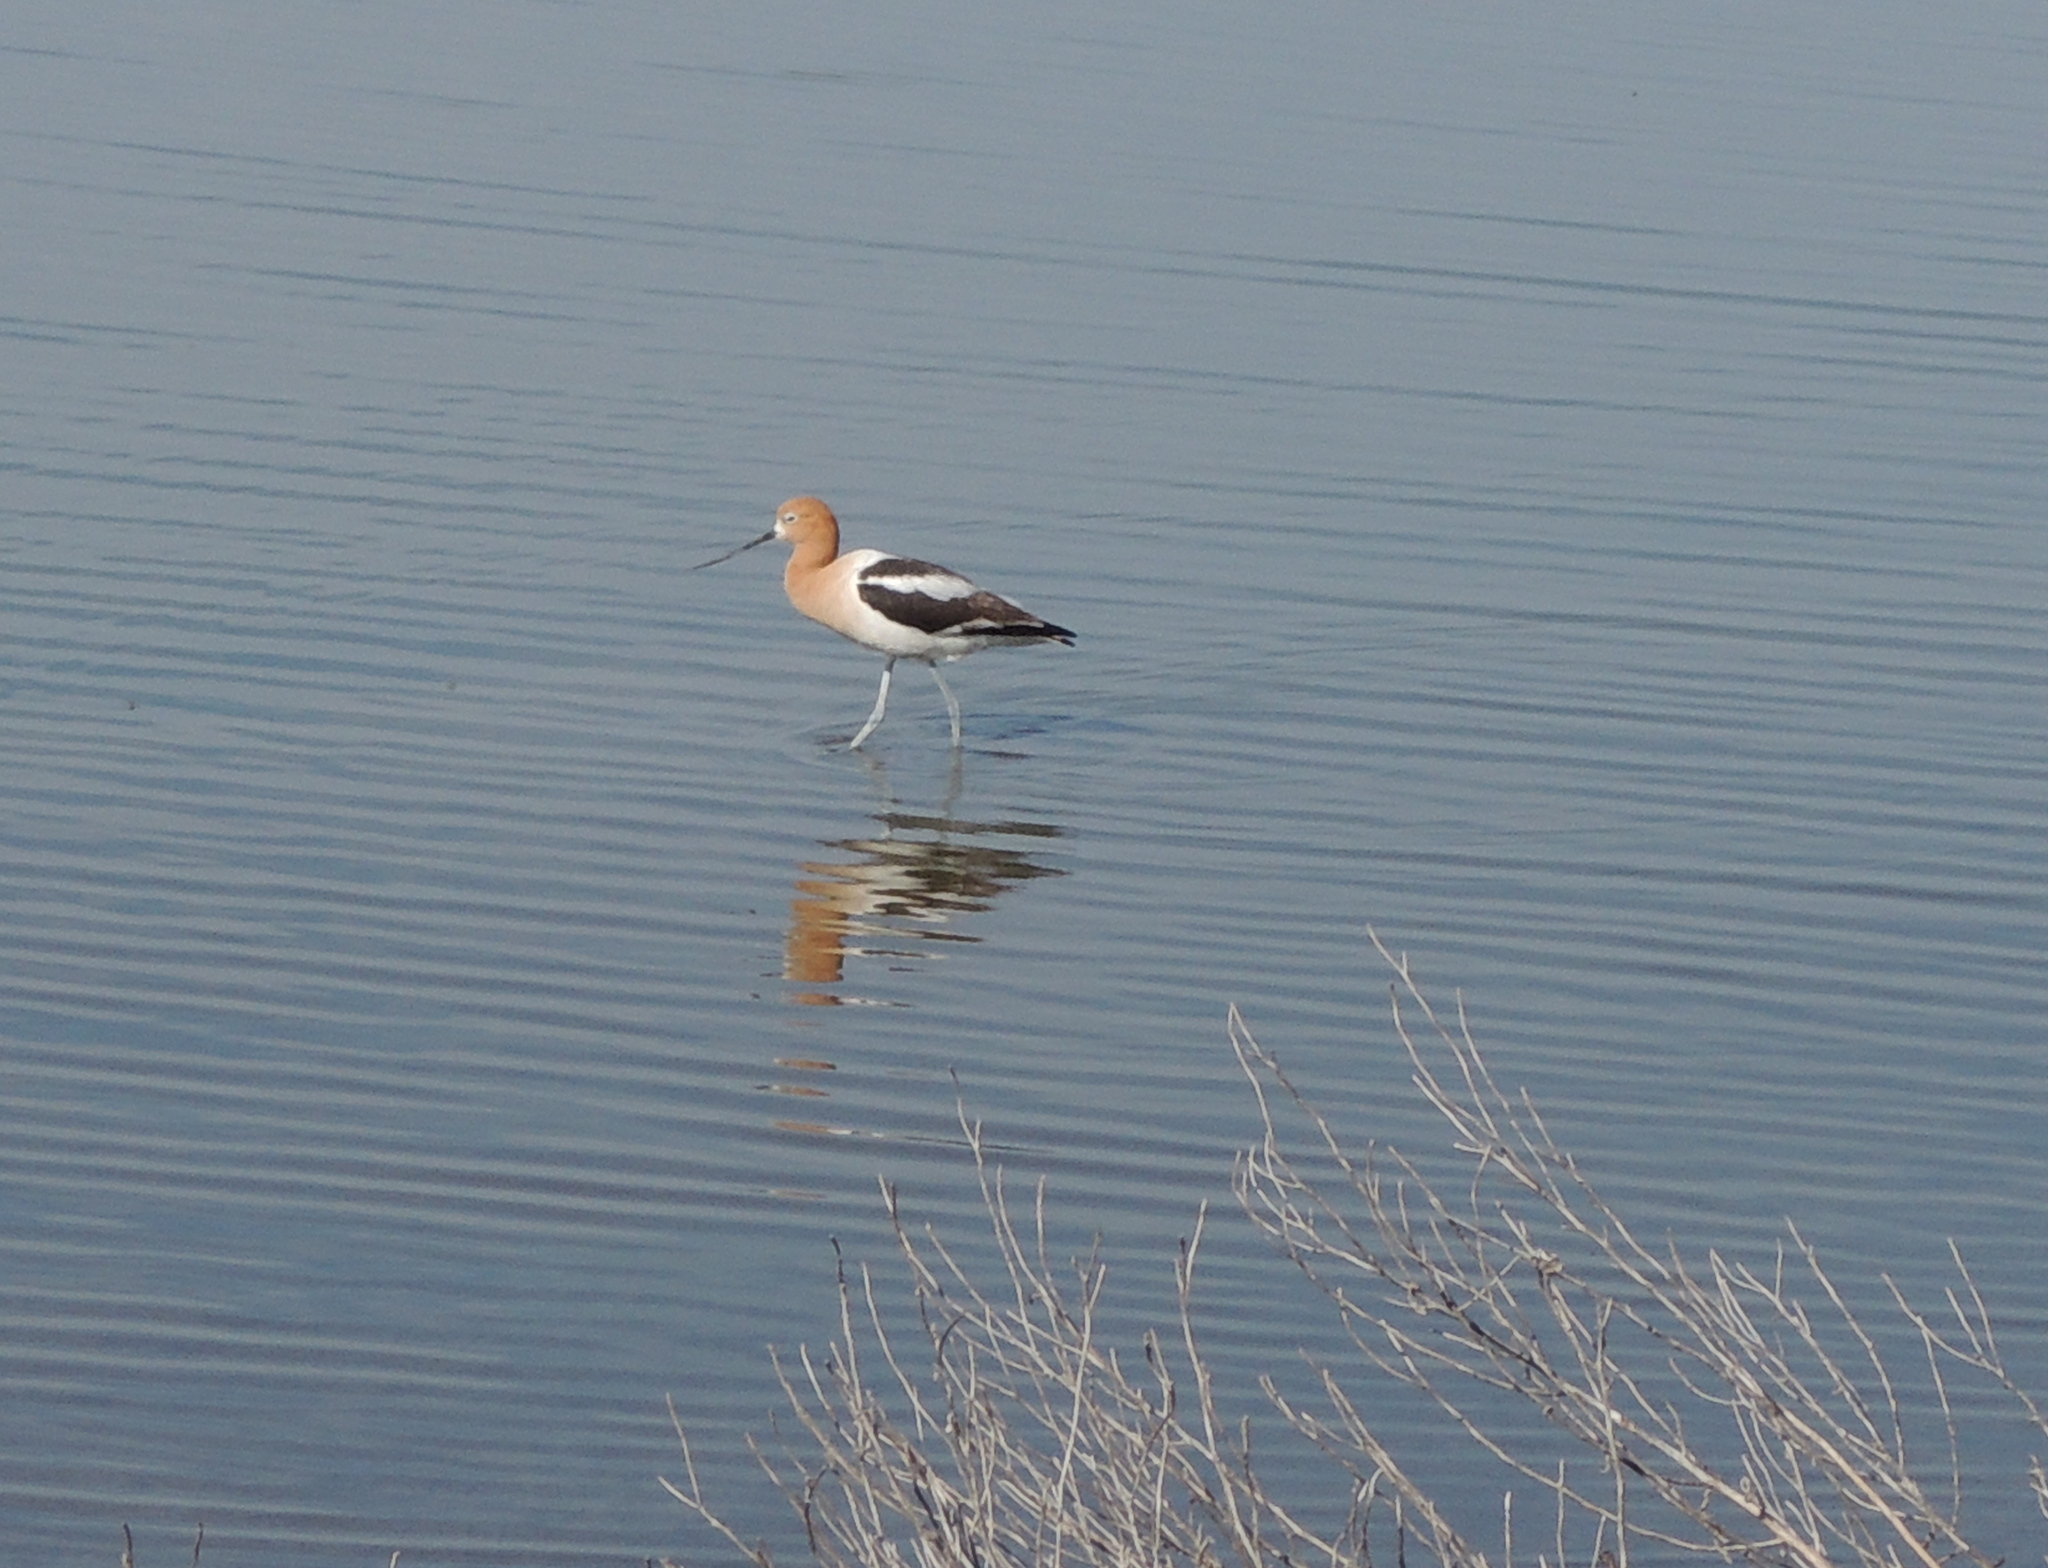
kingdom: Animalia
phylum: Chordata
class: Aves
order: Charadriiformes
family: Recurvirostridae
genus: Recurvirostra
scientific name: Recurvirostra americana
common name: American avocet
